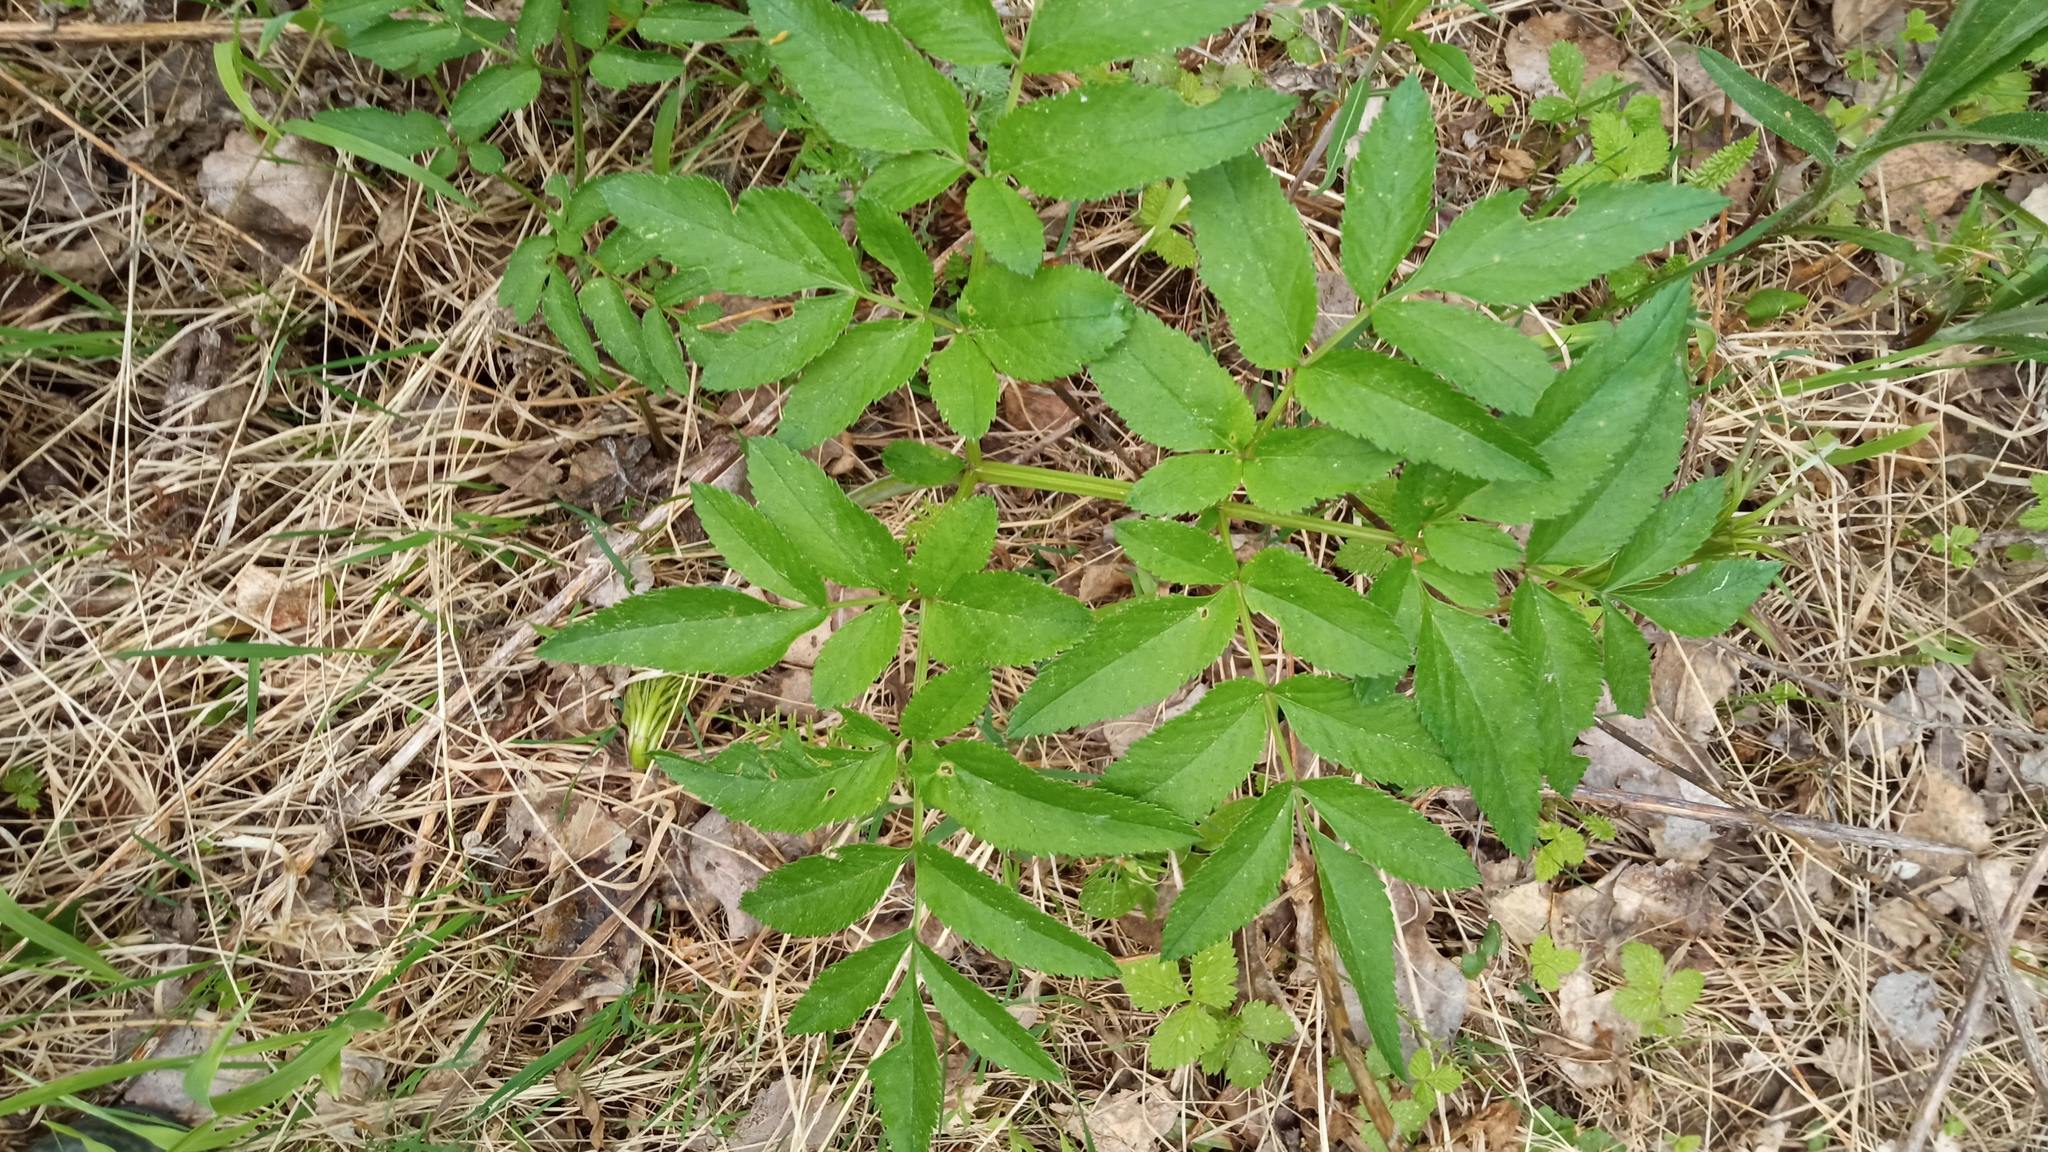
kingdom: Plantae
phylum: Tracheophyta
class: Magnoliopsida
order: Apiales
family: Apiaceae
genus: Angelica
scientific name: Angelica sylvestris
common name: Wild angelica
